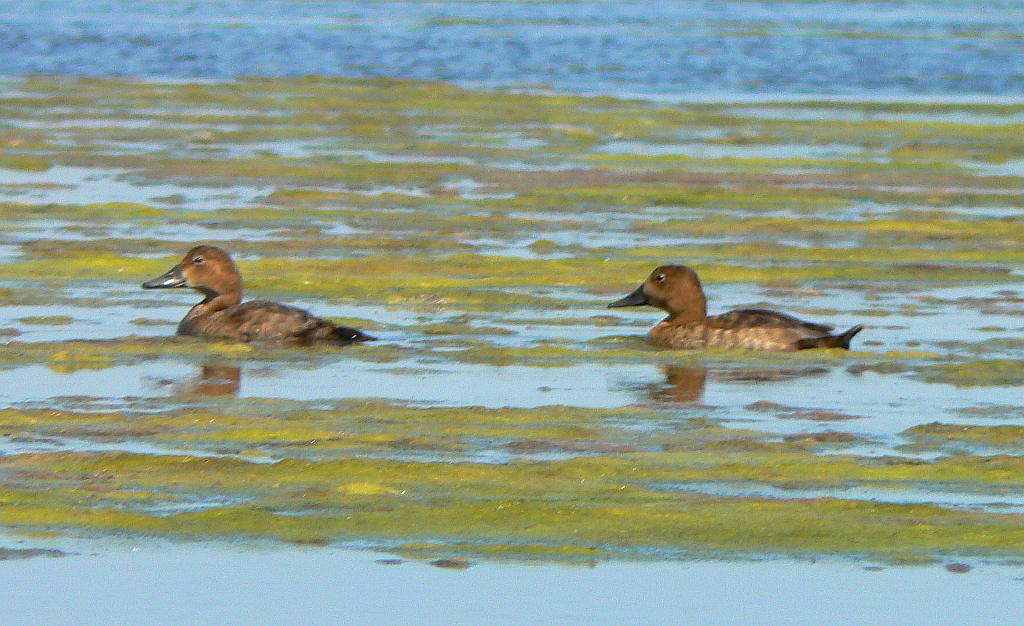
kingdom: Animalia
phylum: Chordata
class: Aves
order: Anseriformes
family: Anatidae
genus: Aythya
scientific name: Aythya ferina
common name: Common pochard
